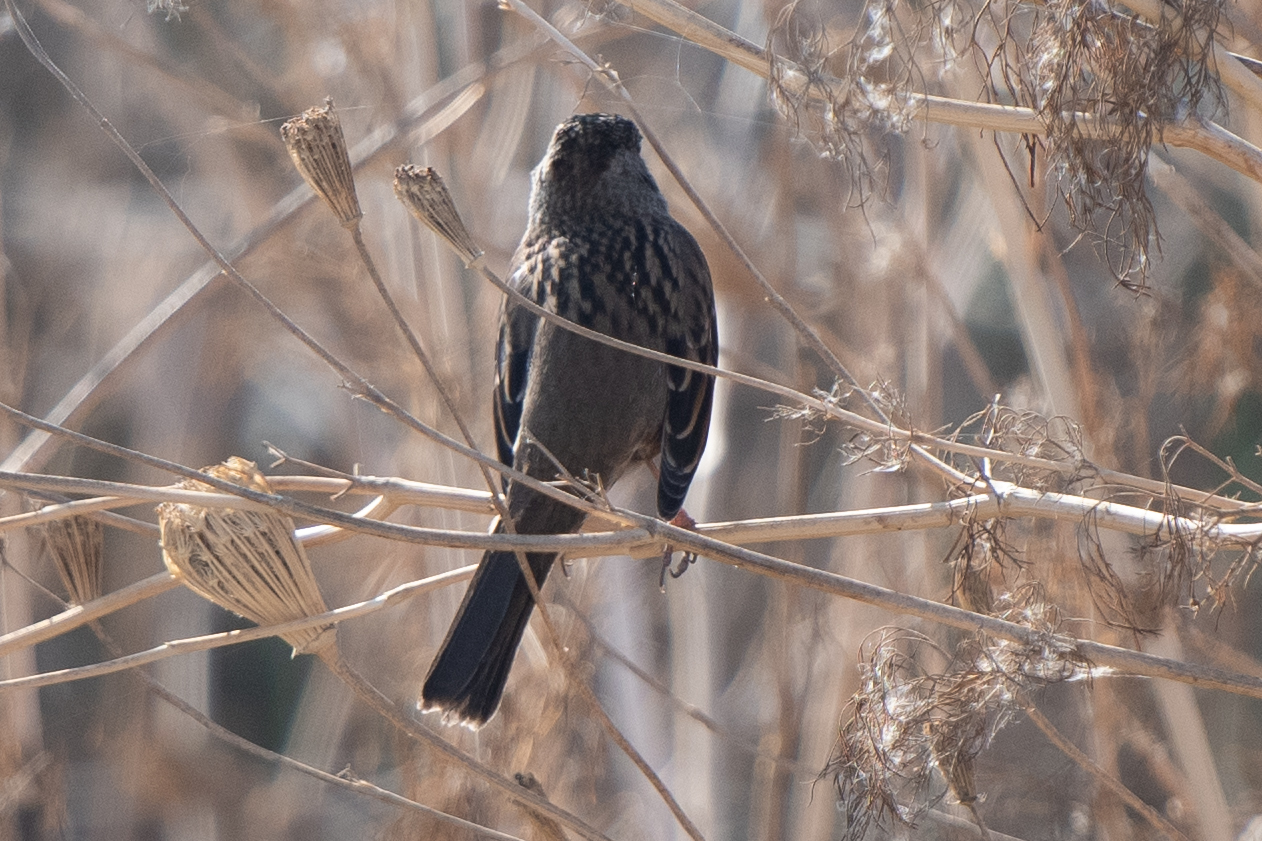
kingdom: Animalia
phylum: Chordata
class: Aves
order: Passeriformes
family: Passerellidae
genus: Zonotrichia
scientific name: Zonotrichia atricapilla
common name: Golden-crowned sparrow
